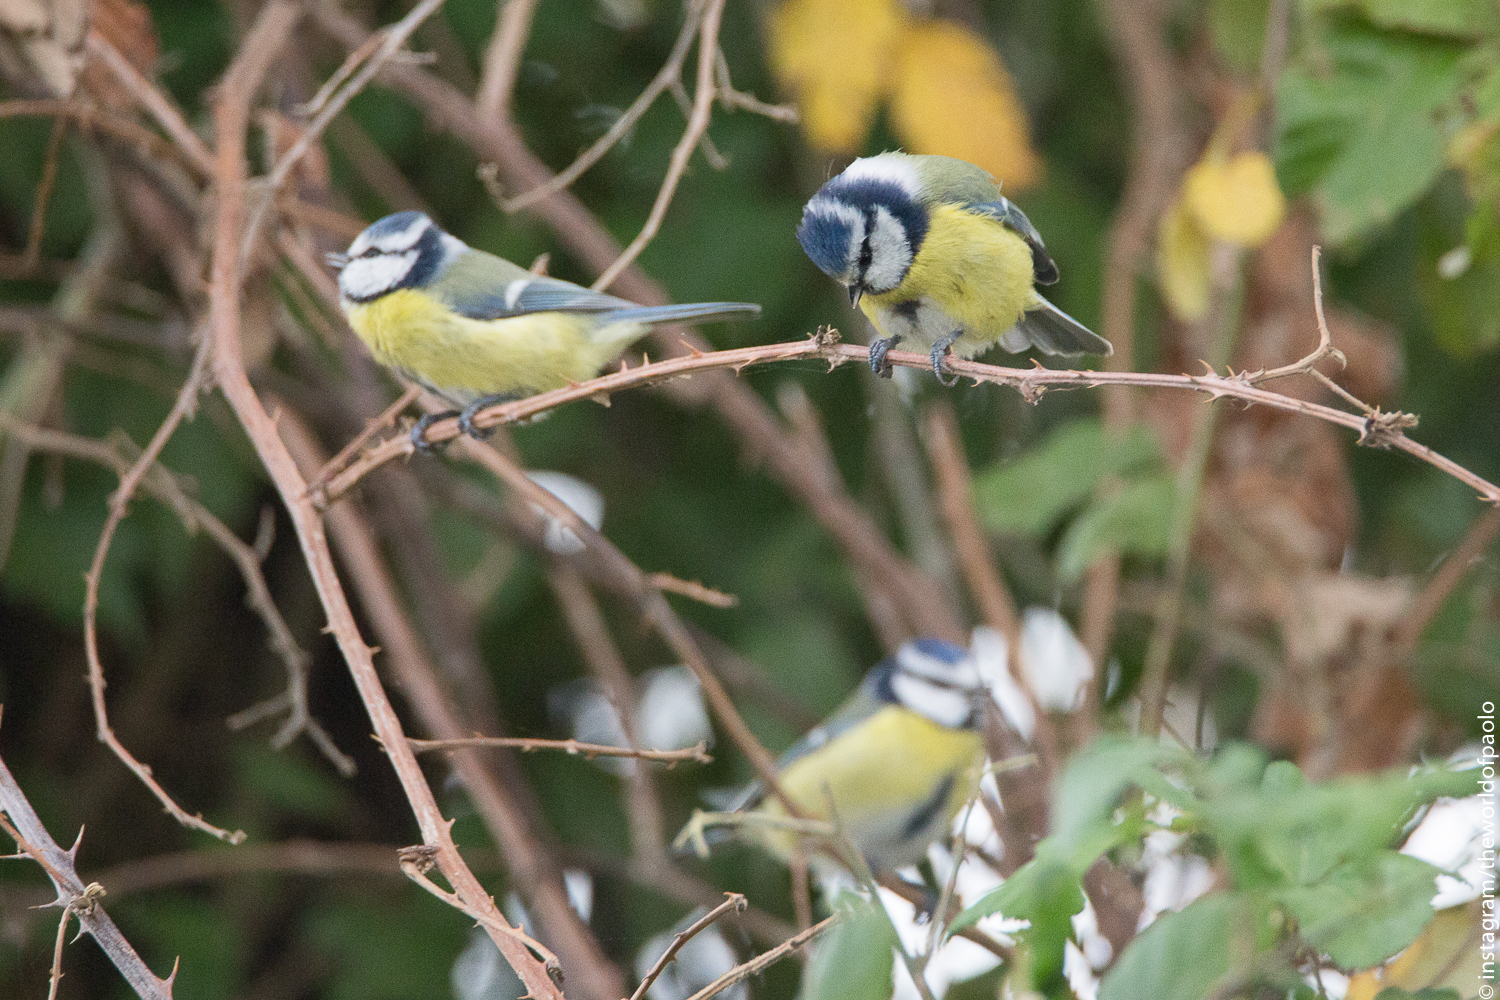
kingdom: Animalia
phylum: Chordata
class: Aves
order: Passeriformes
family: Paridae
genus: Cyanistes
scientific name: Cyanistes caeruleus
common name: Eurasian blue tit
